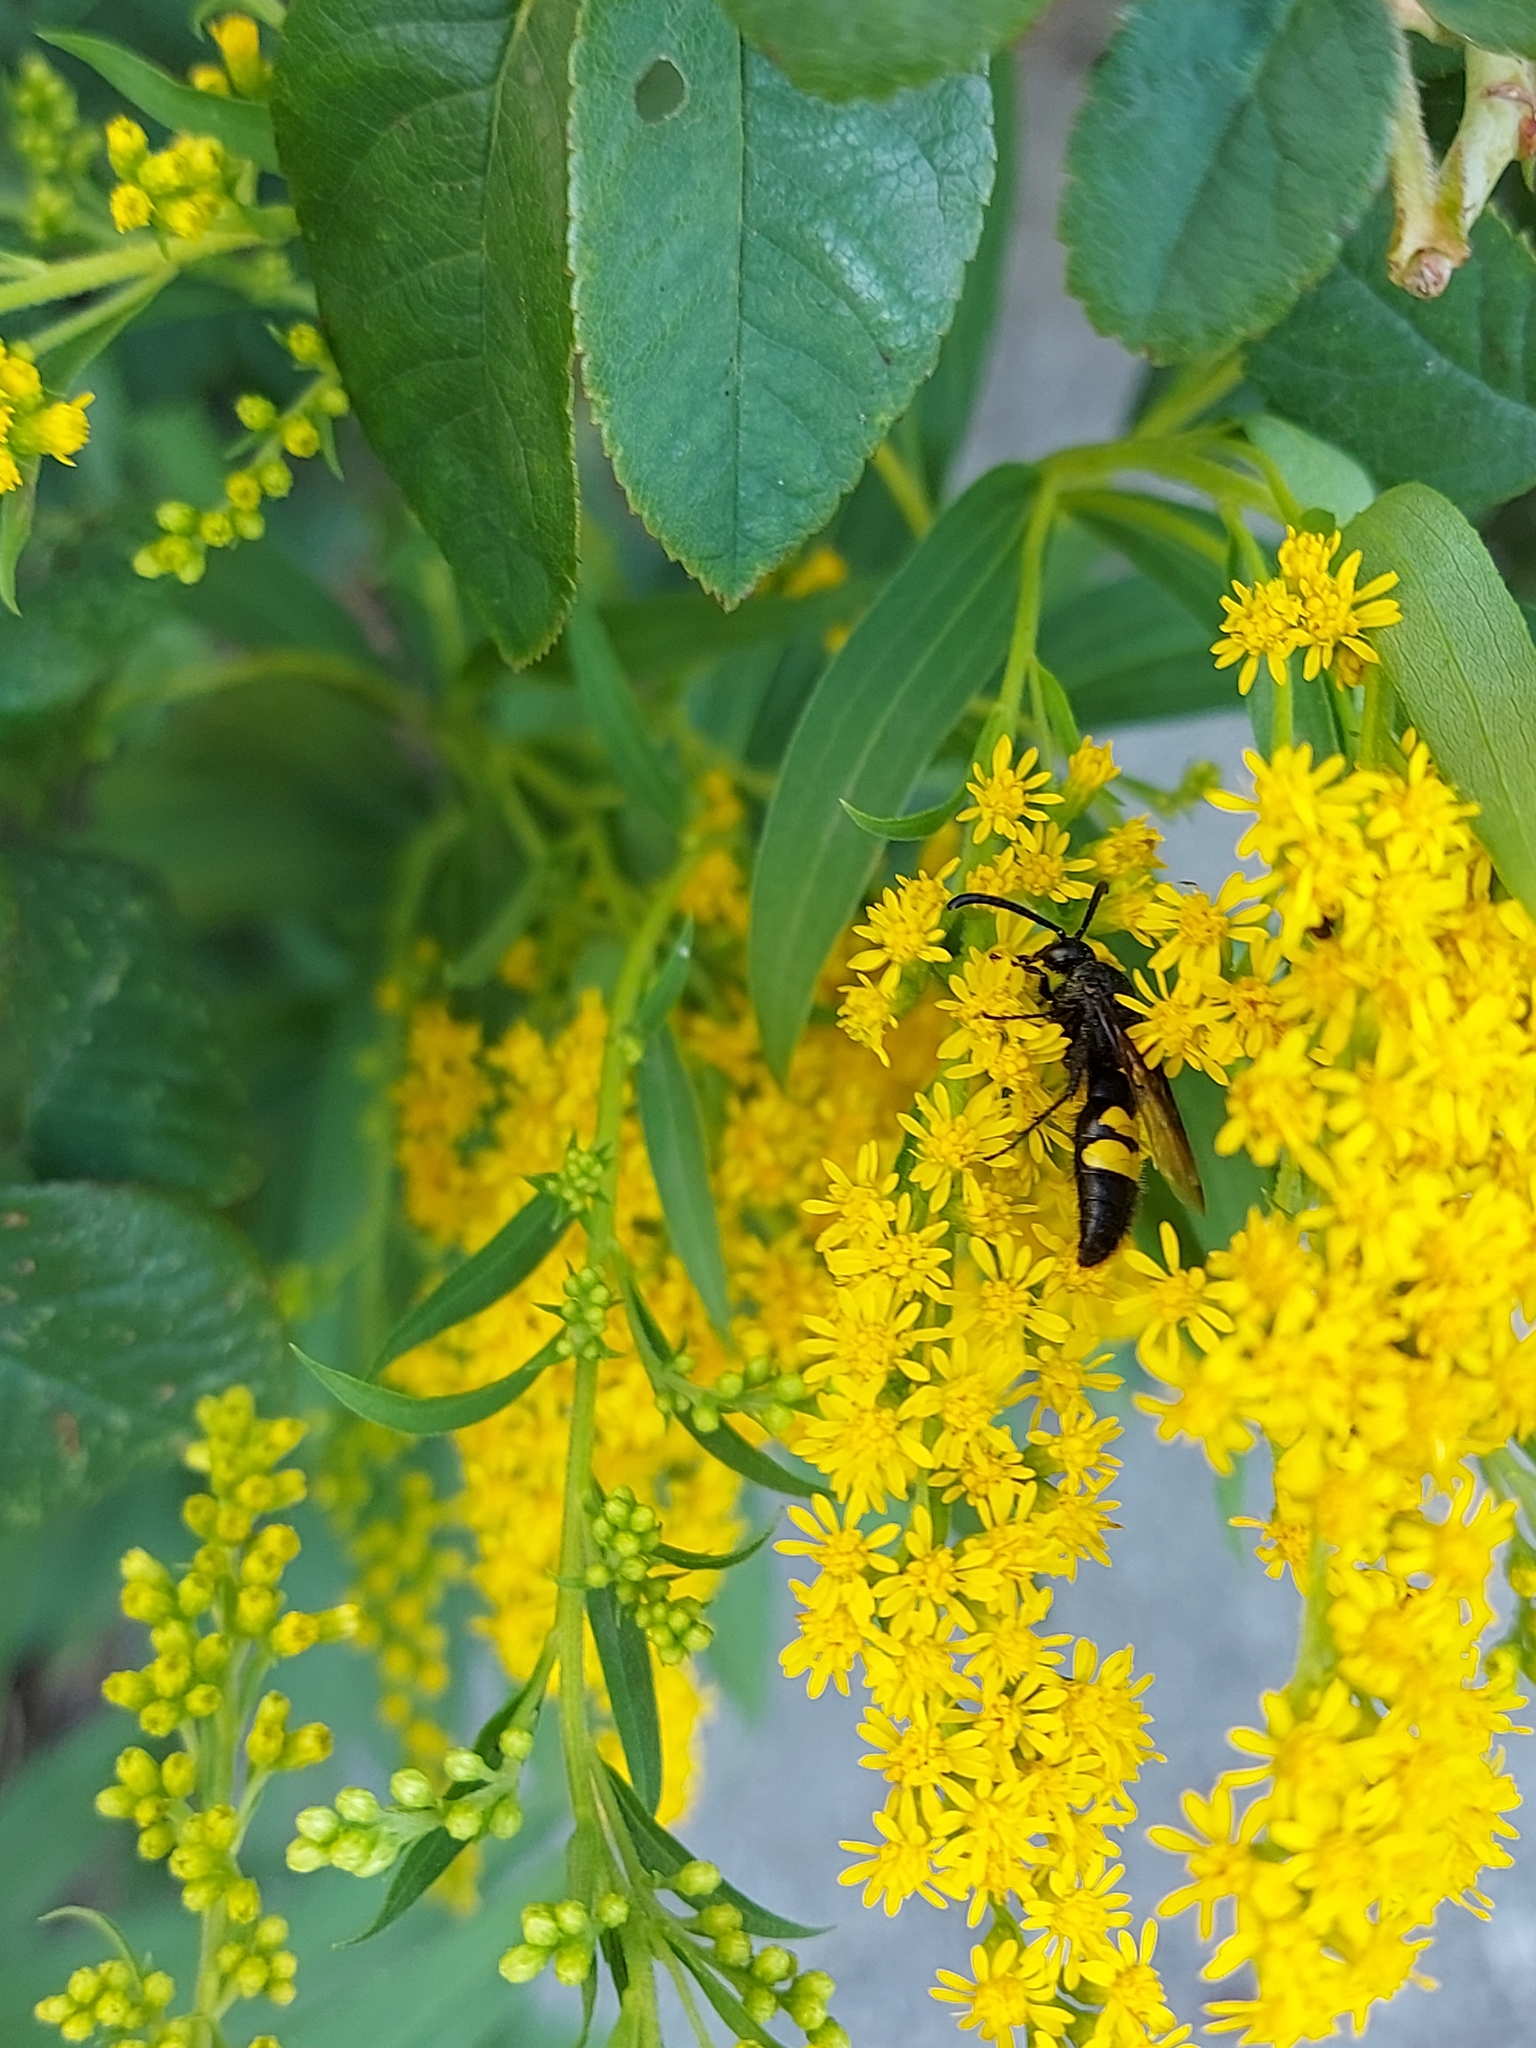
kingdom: Animalia
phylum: Arthropoda
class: Insecta
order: Hymenoptera
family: Scoliidae
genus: Scolia
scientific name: Scolia hirta
